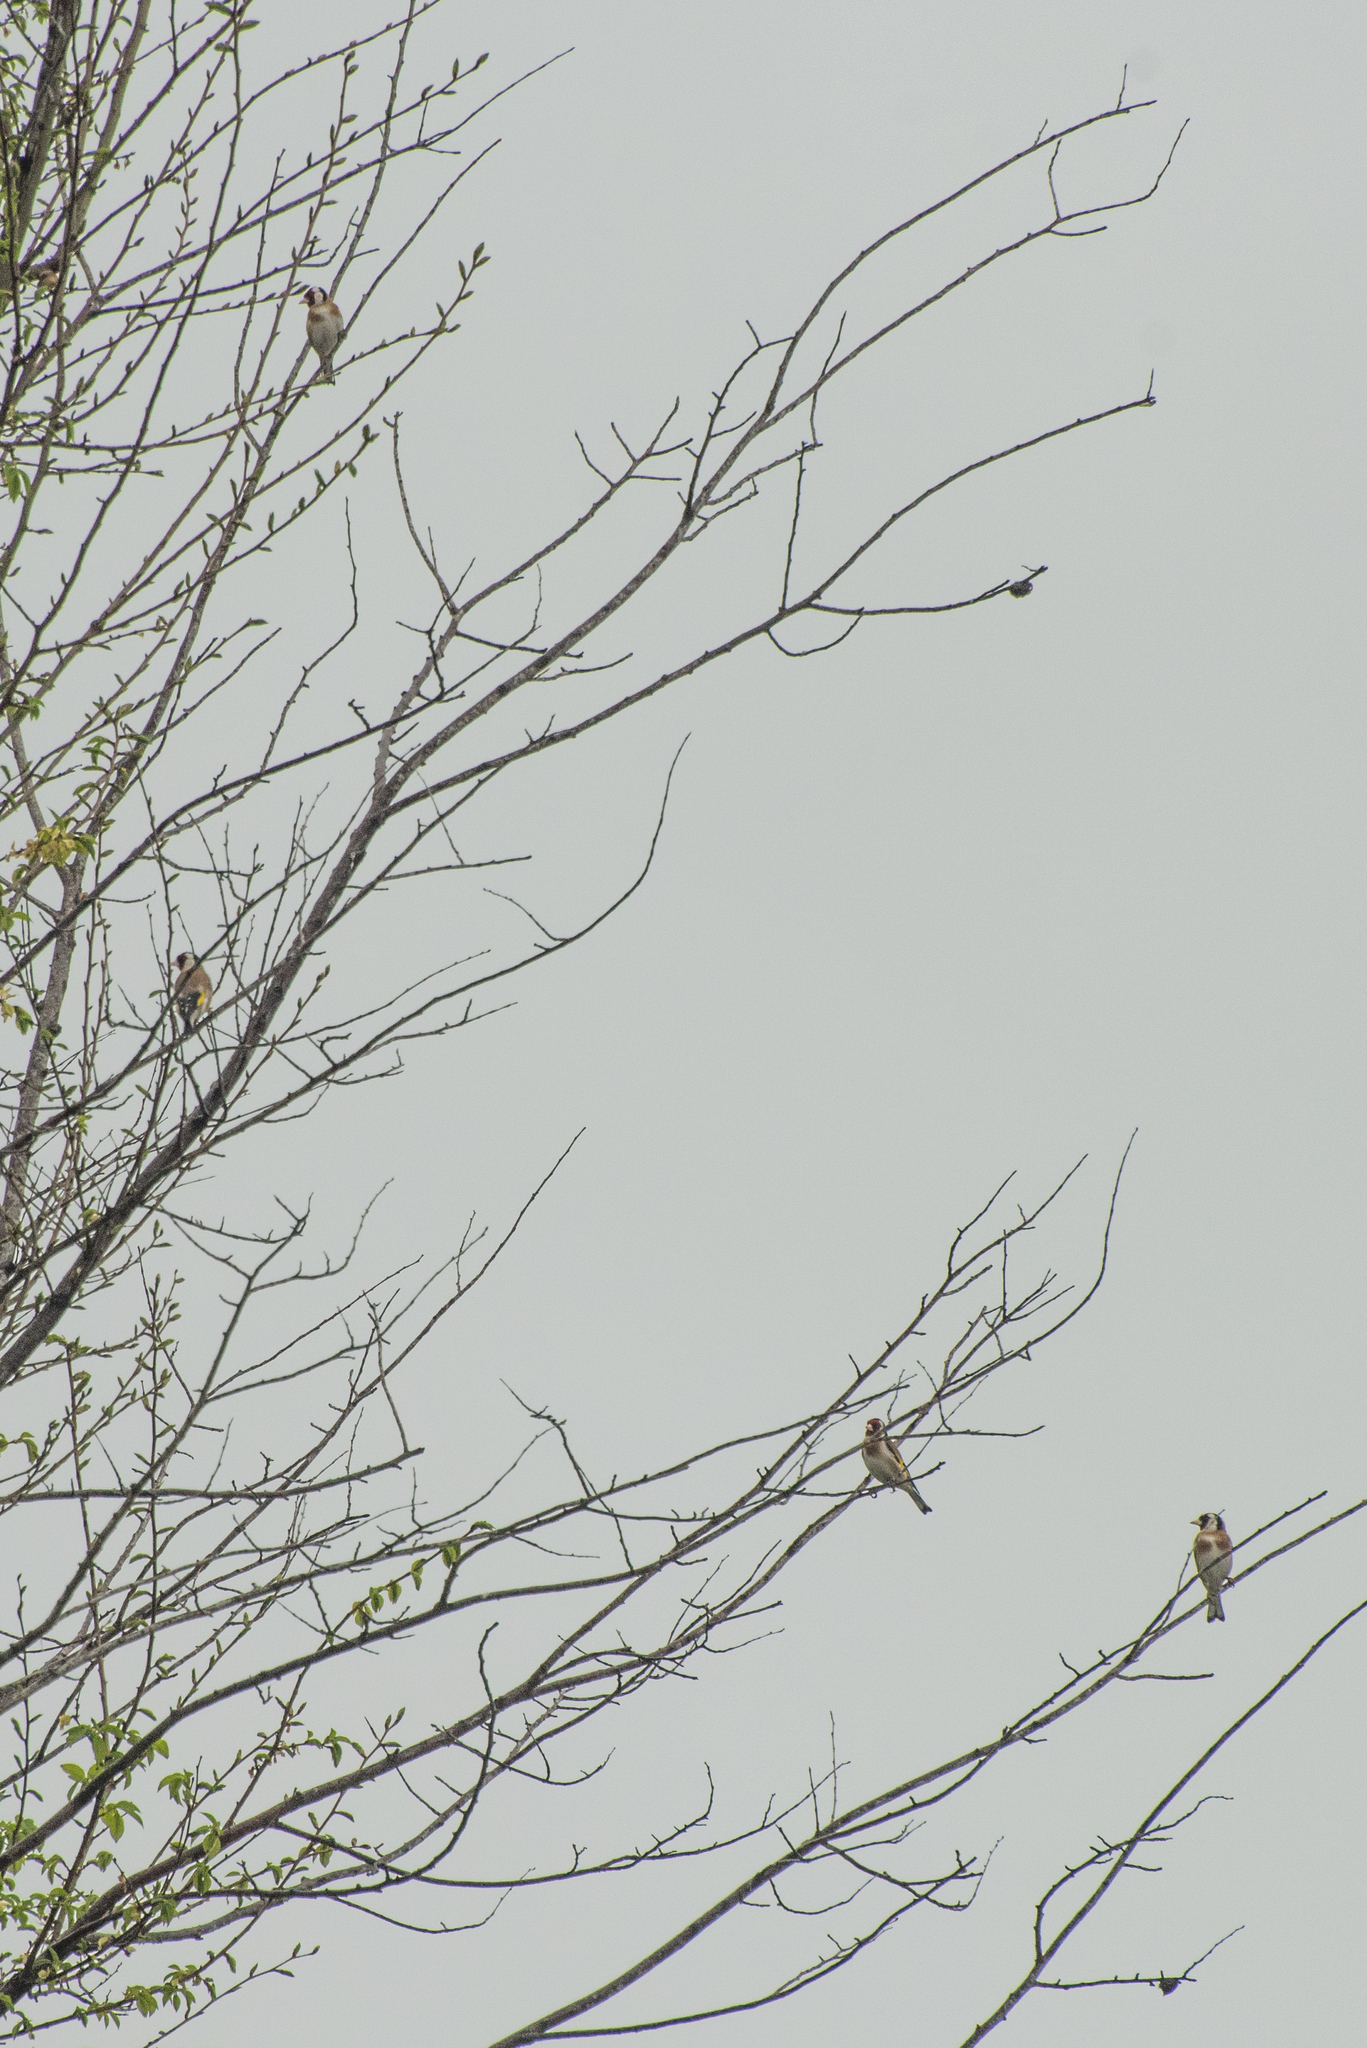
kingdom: Animalia
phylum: Chordata
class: Aves
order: Passeriformes
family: Fringillidae
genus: Carduelis
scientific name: Carduelis carduelis
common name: European goldfinch
